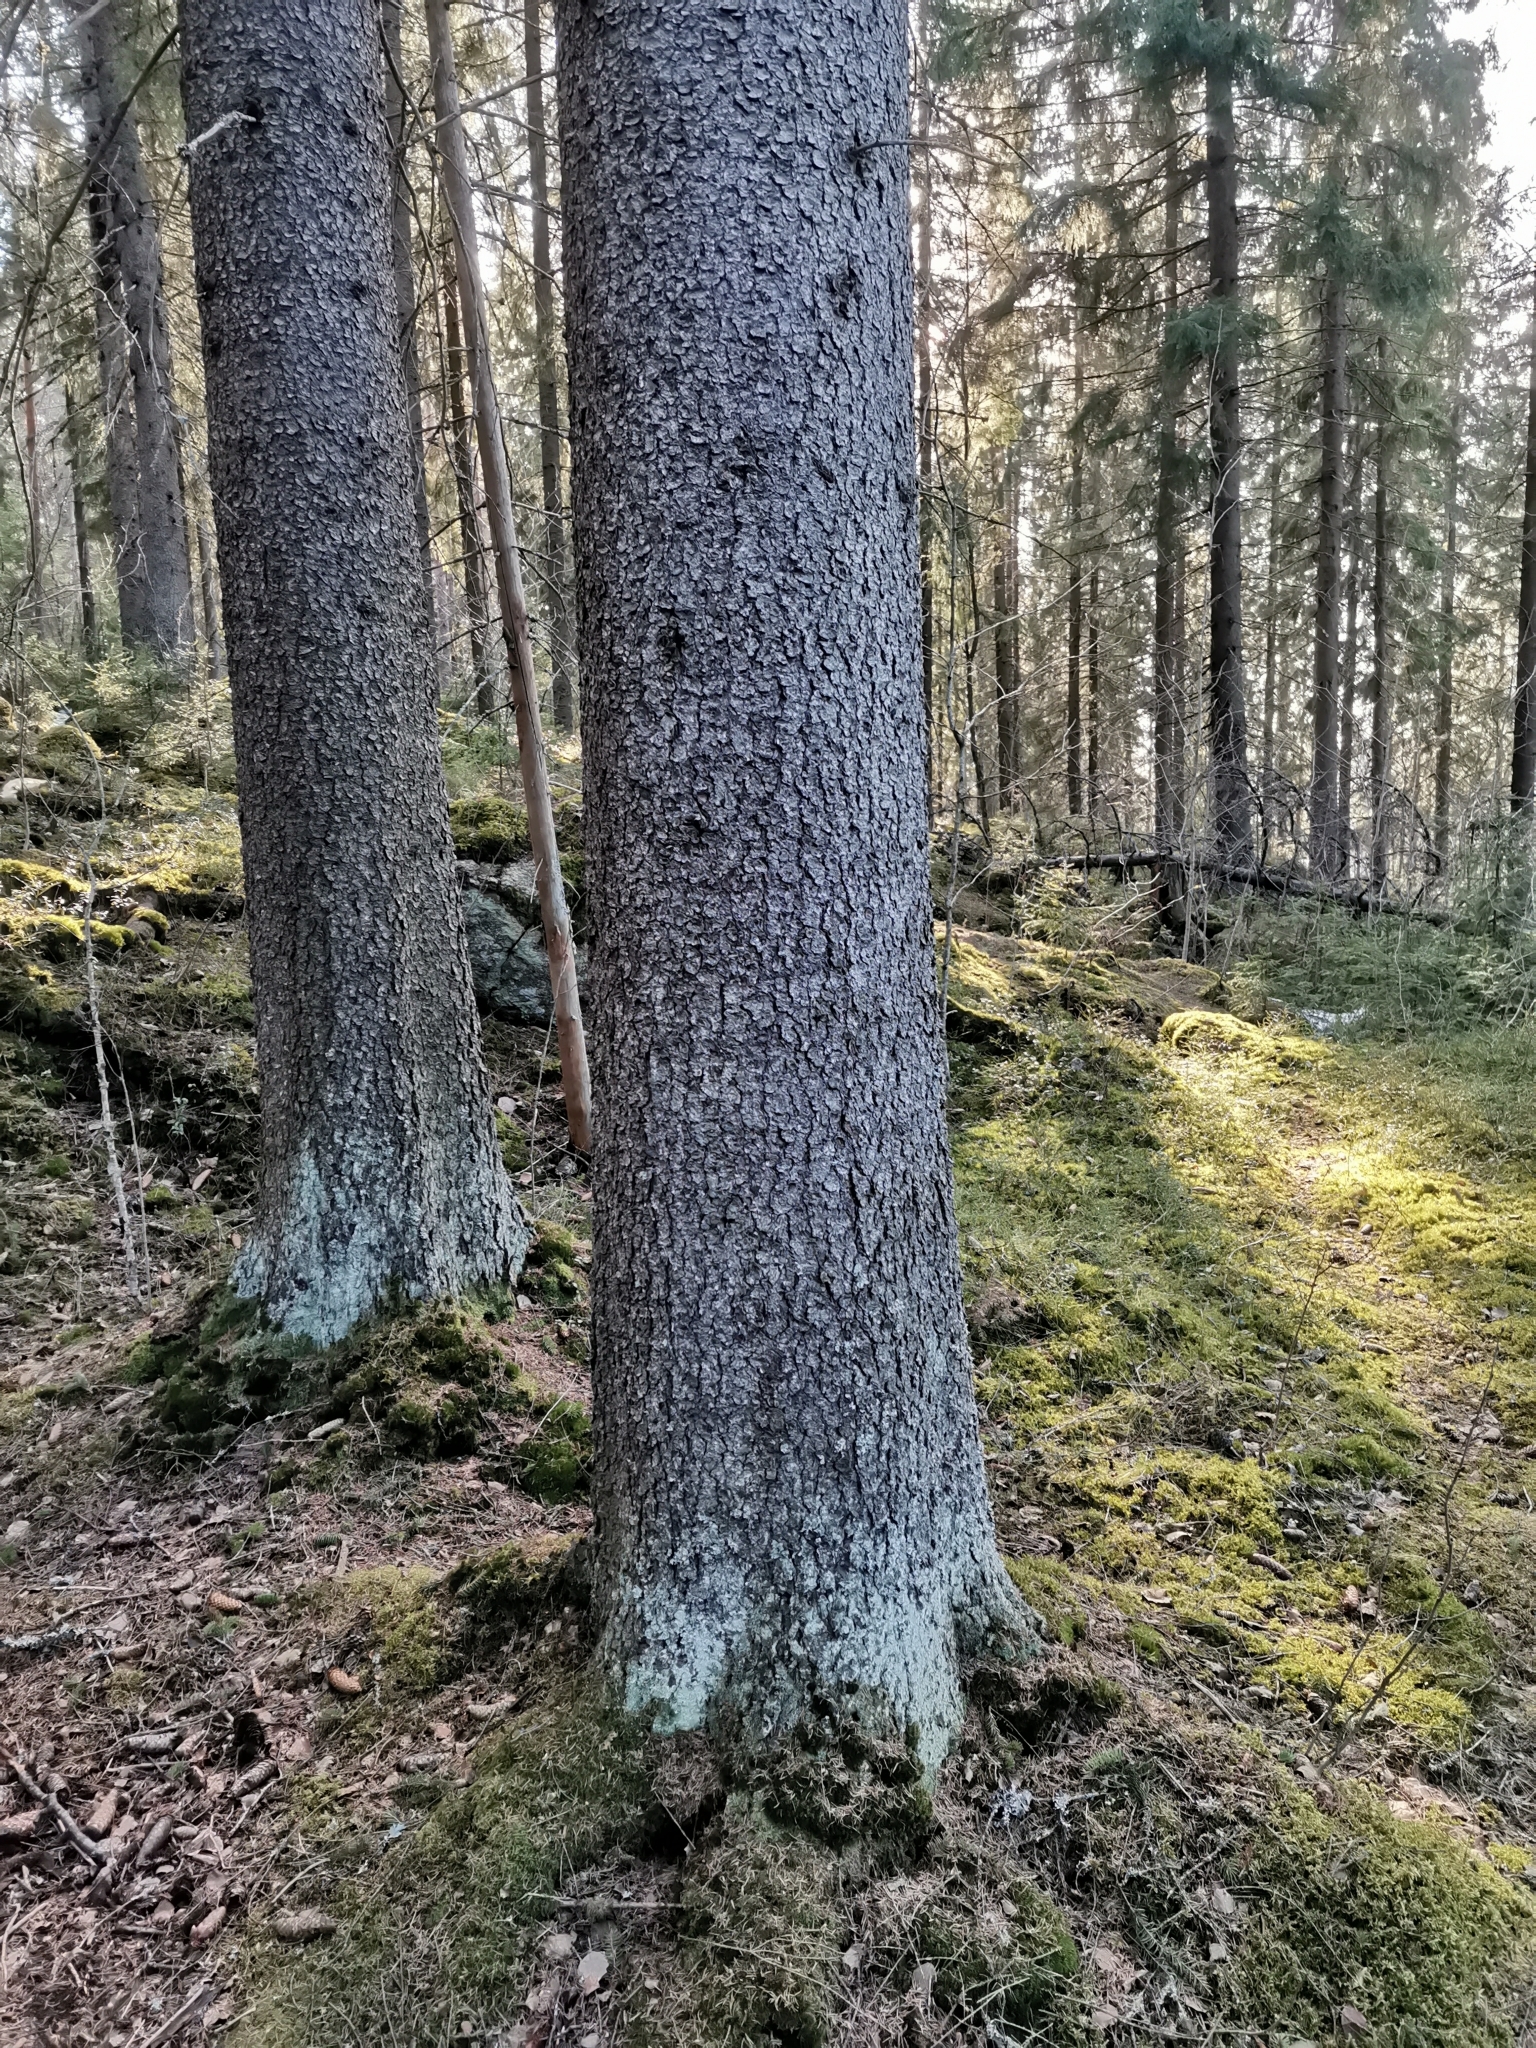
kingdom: Animalia
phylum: Chordata
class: Mammalia
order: Rodentia
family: Sciuridae
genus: Pteromys
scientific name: Pteromys volans
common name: Siberian flying squirrel
